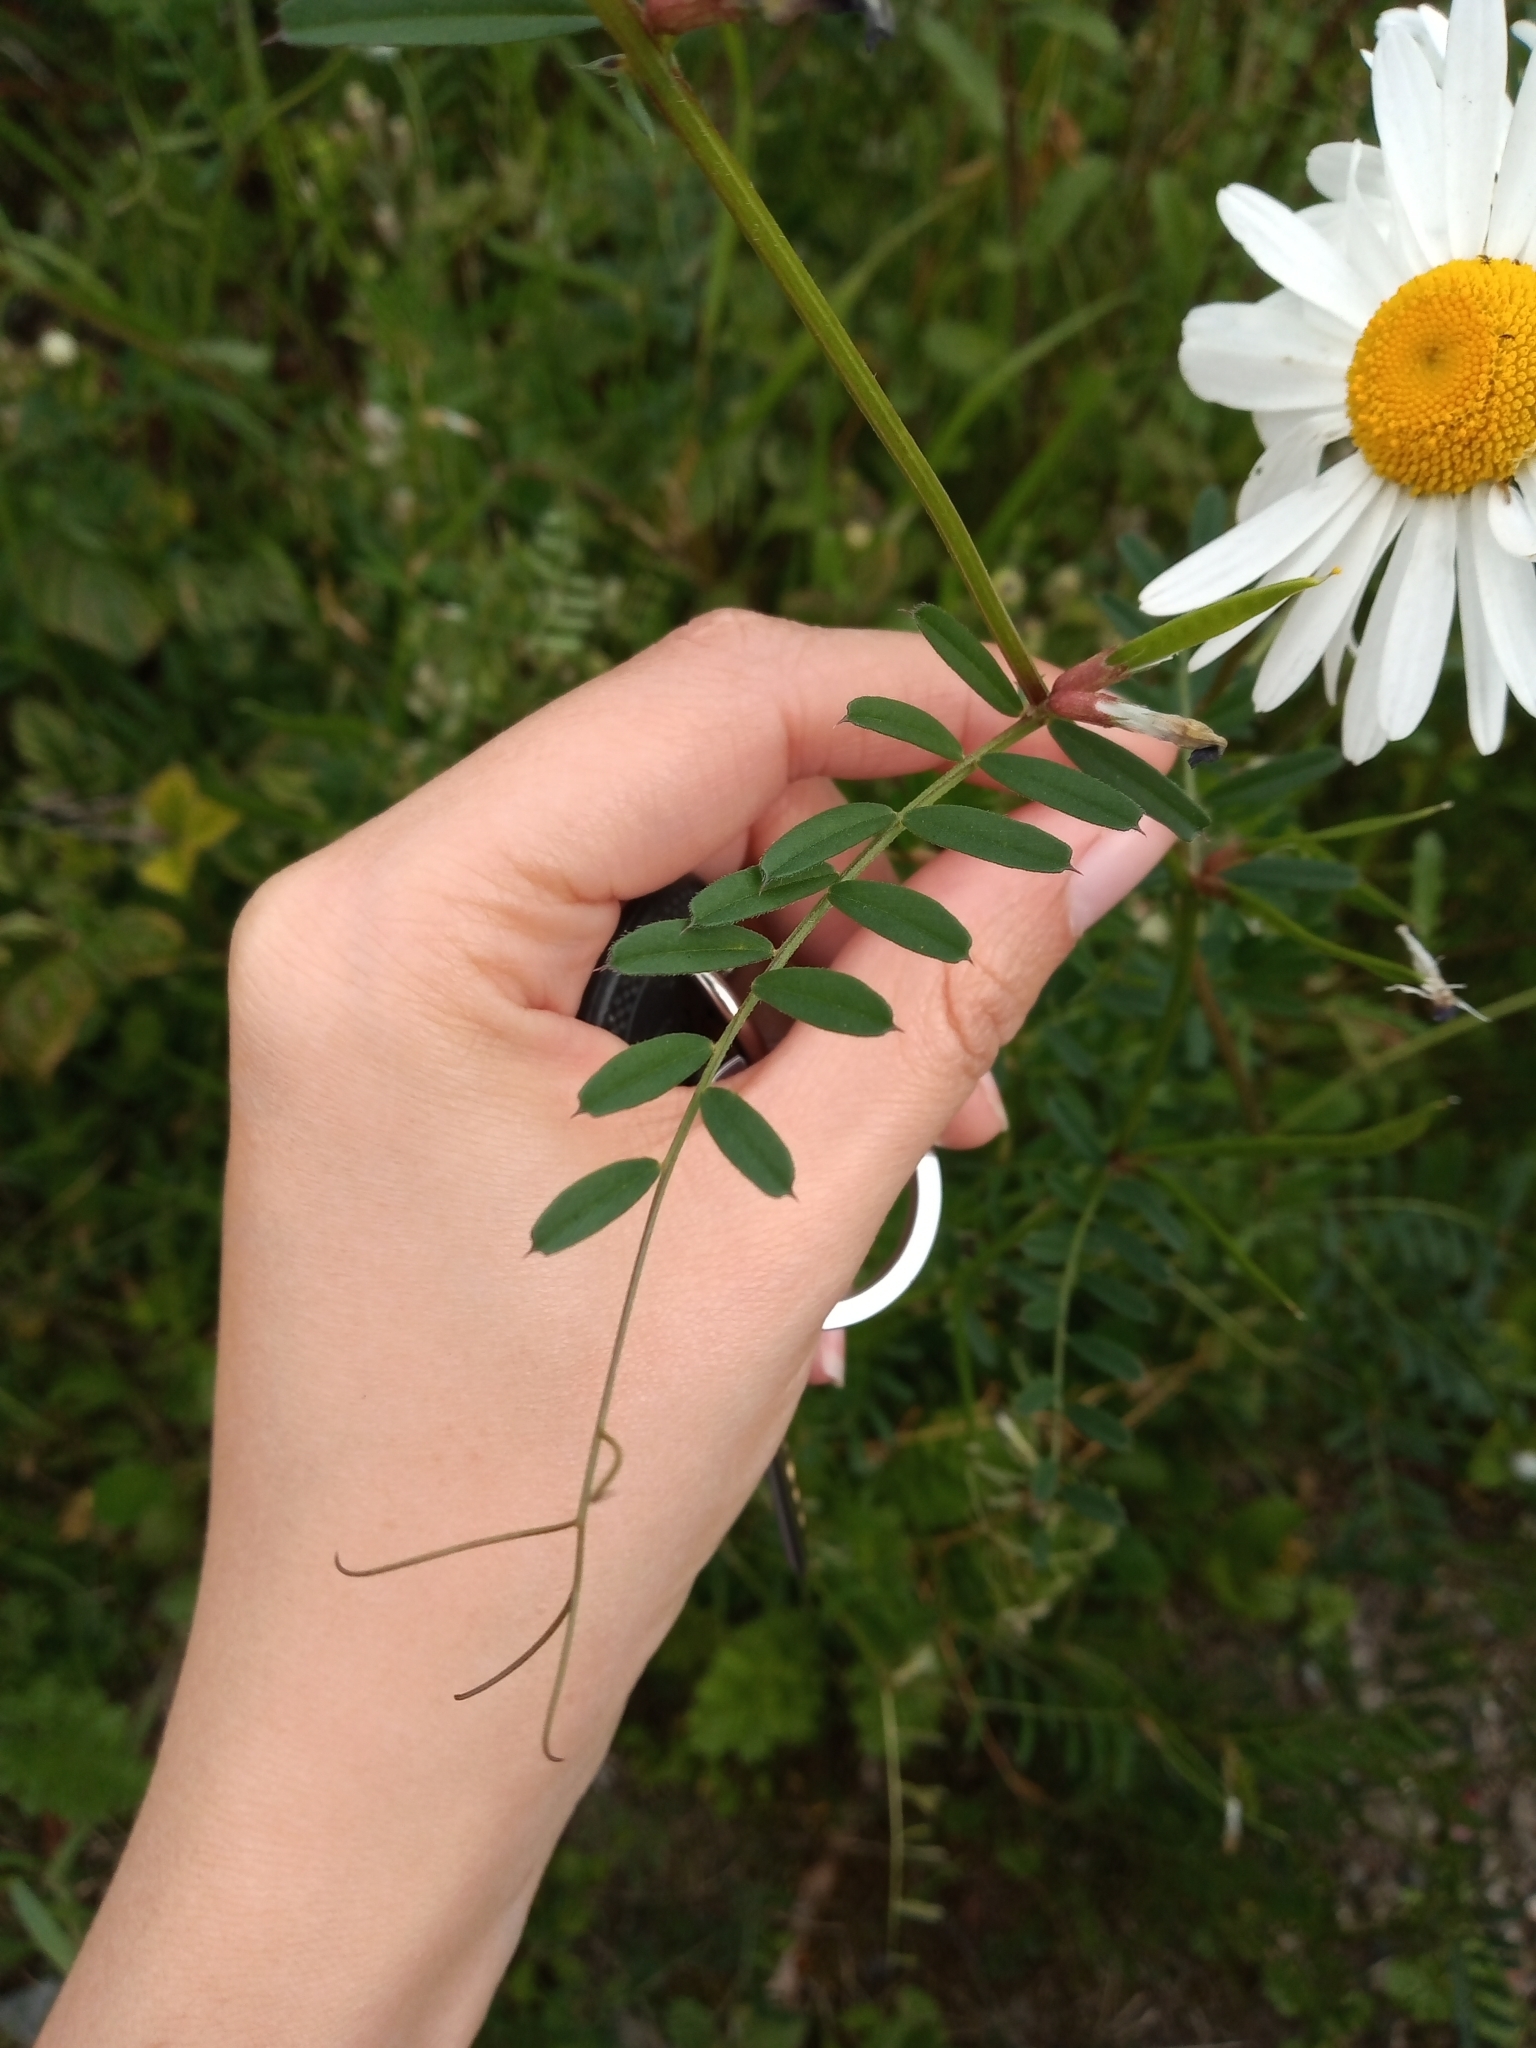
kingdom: Plantae
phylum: Tracheophyta
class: Magnoliopsida
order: Fabales
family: Fabaceae
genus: Vicia
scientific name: Vicia sativa
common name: Garden vetch
